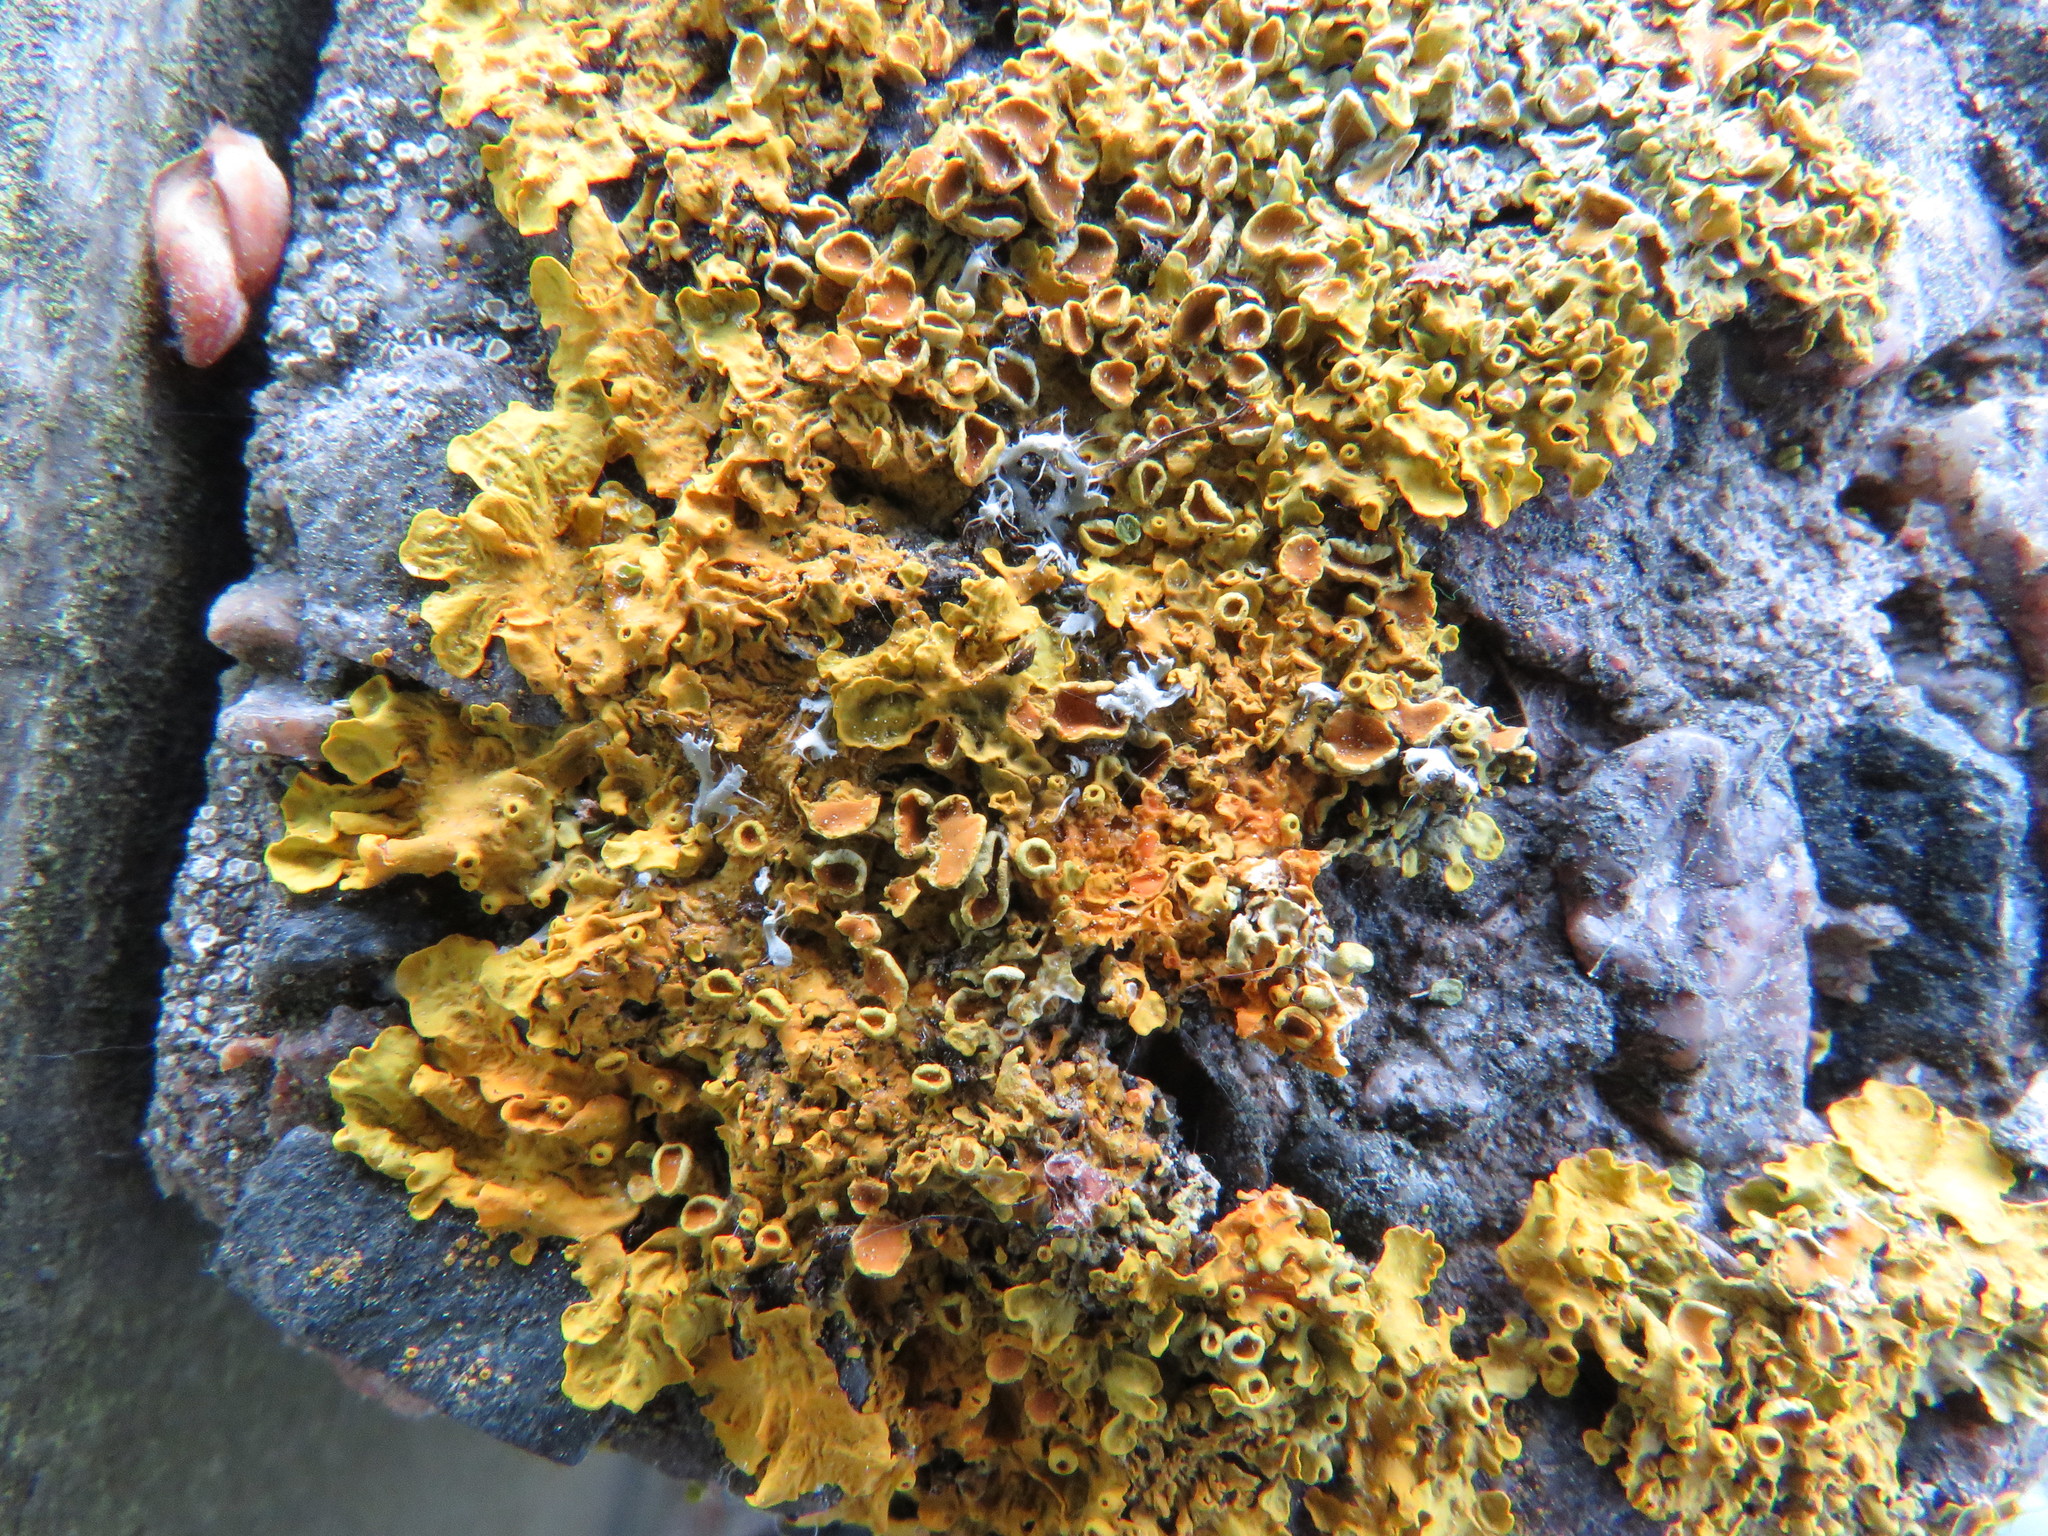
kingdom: Fungi
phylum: Ascomycota
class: Lecanoromycetes
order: Teloschistales
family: Teloschistaceae
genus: Xanthoria
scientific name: Xanthoria parietina
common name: Common orange lichen
